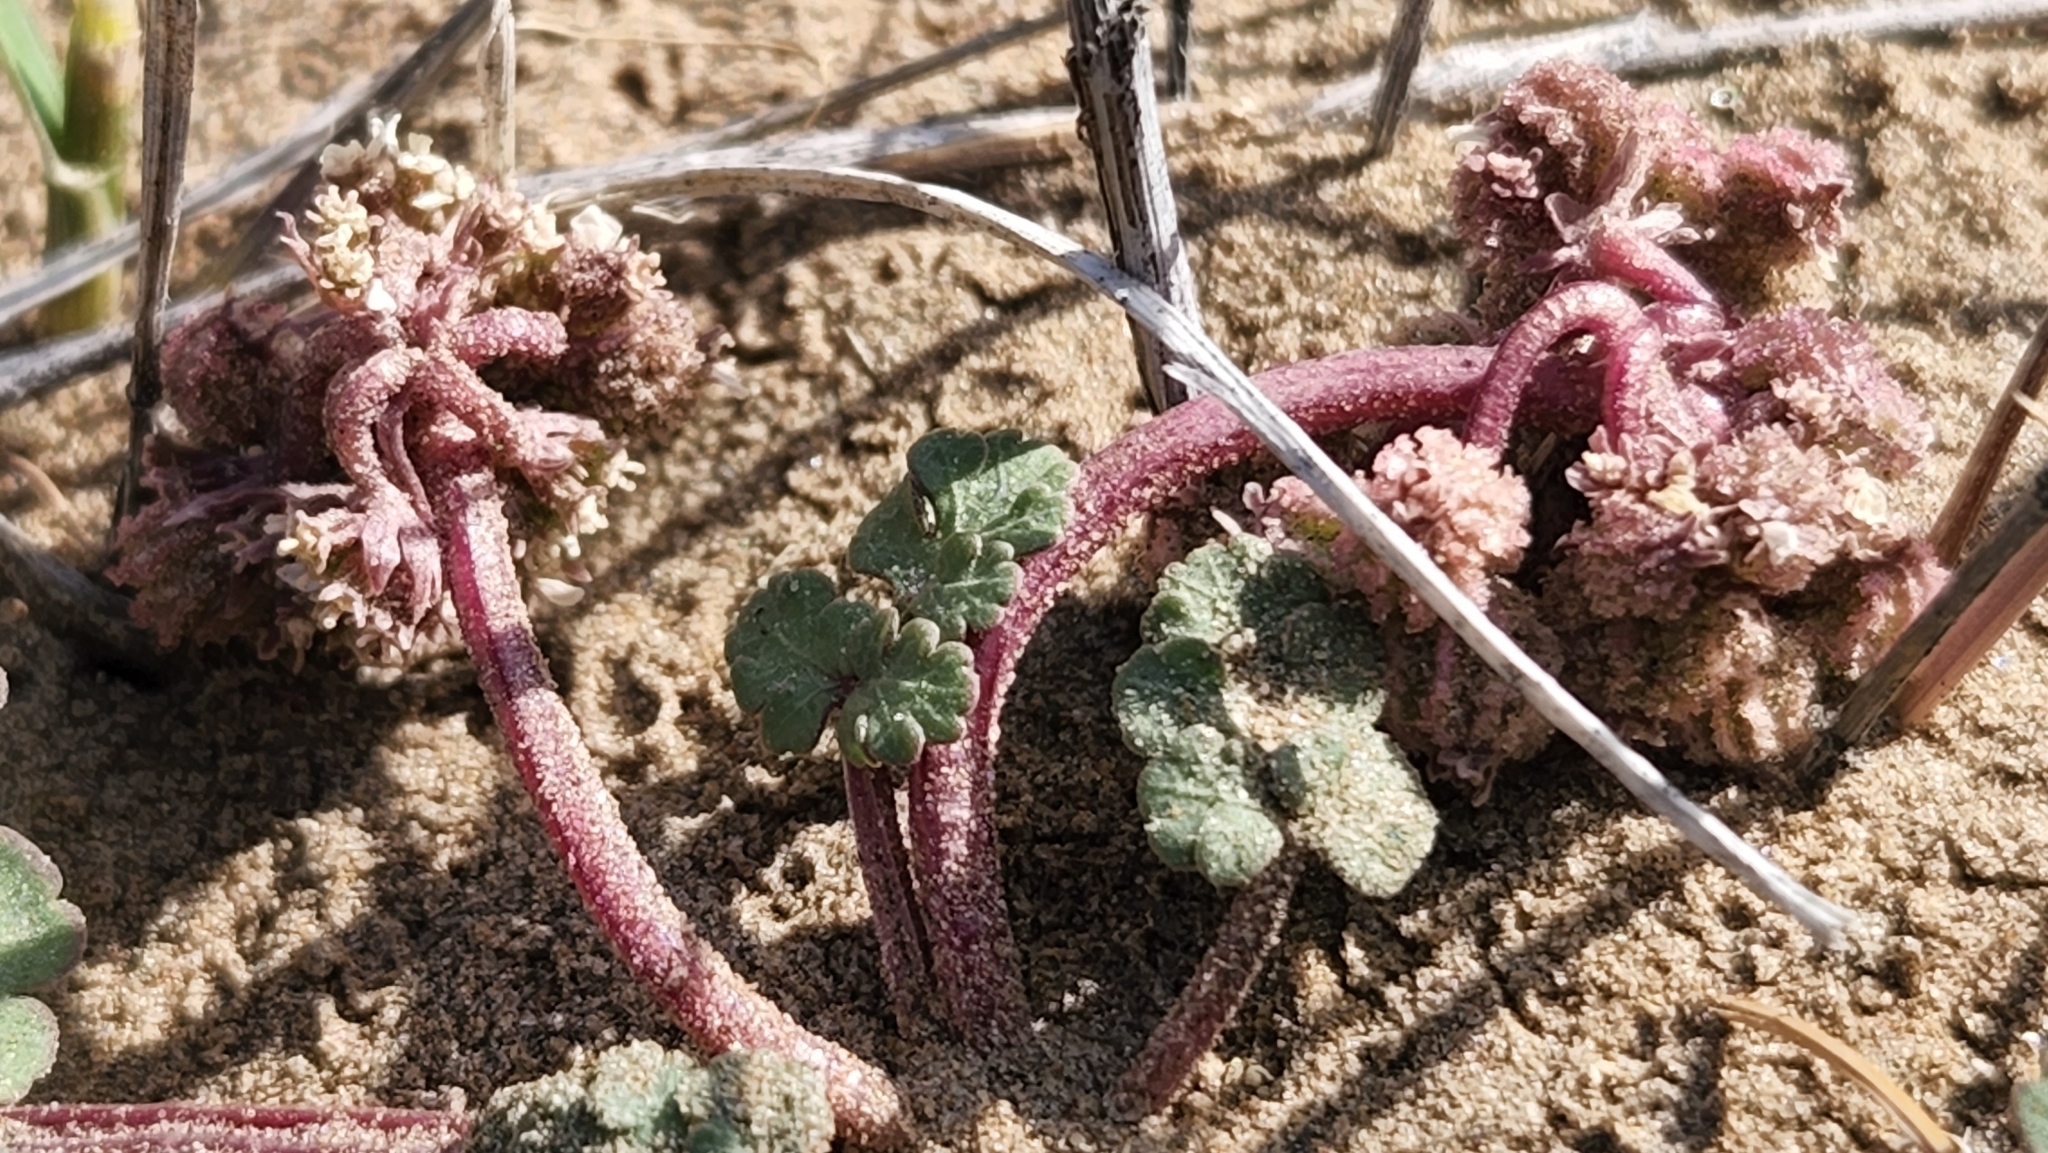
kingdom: Plantae
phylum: Tracheophyta
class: Magnoliopsida
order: Apiales
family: Apiaceae
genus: Rhysopterus
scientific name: Rhysopterus plurijugus
